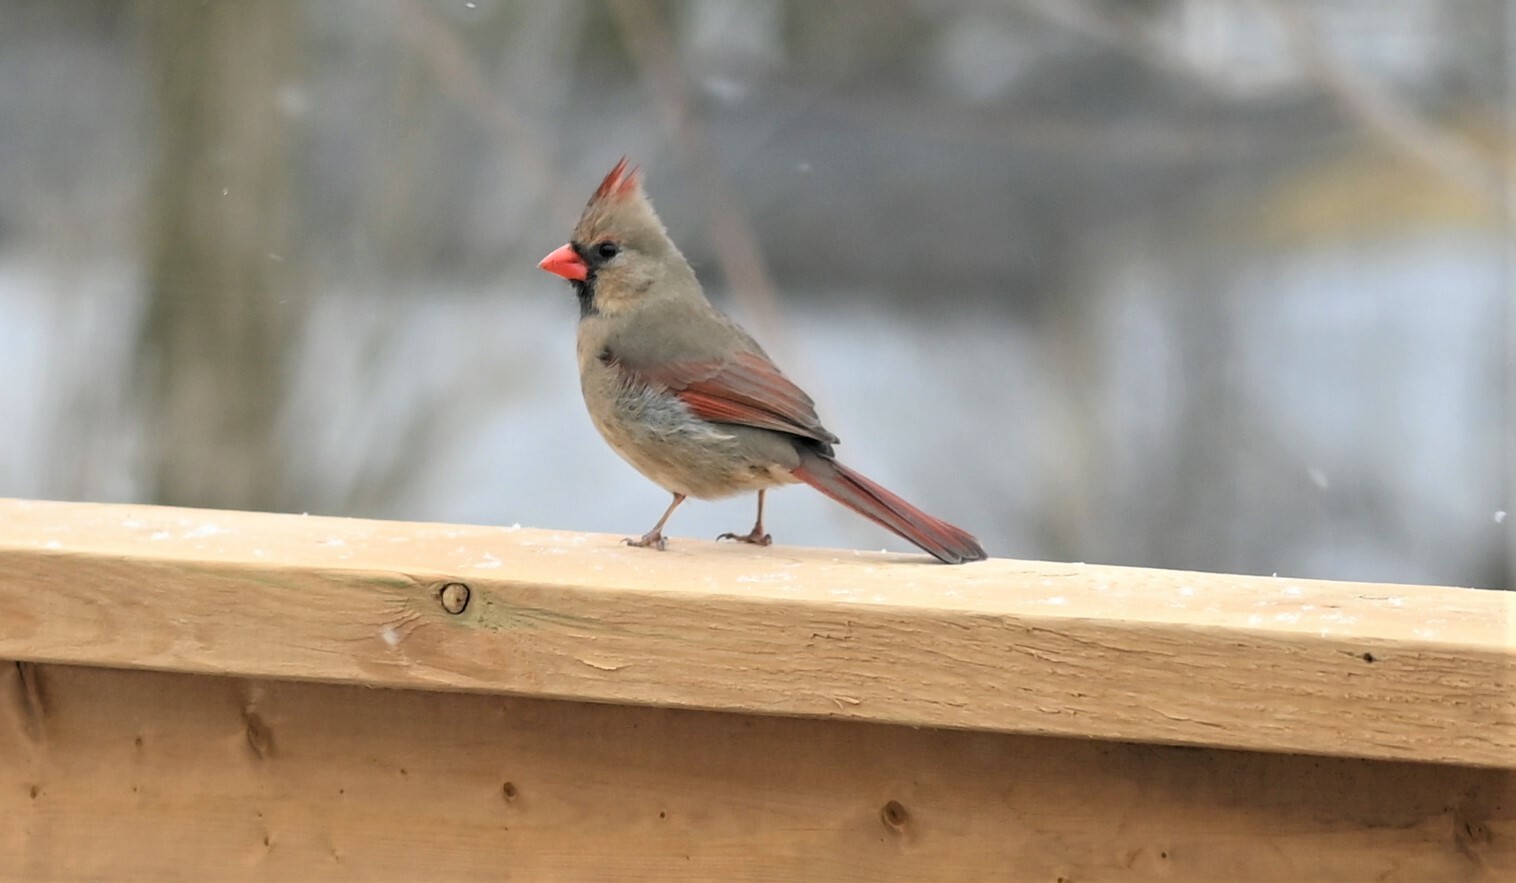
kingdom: Animalia
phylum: Chordata
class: Aves
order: Passeriformes
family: Cardinalidae
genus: Cardinalis
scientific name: Cardinalis cardinalis
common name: Northern cardinal
